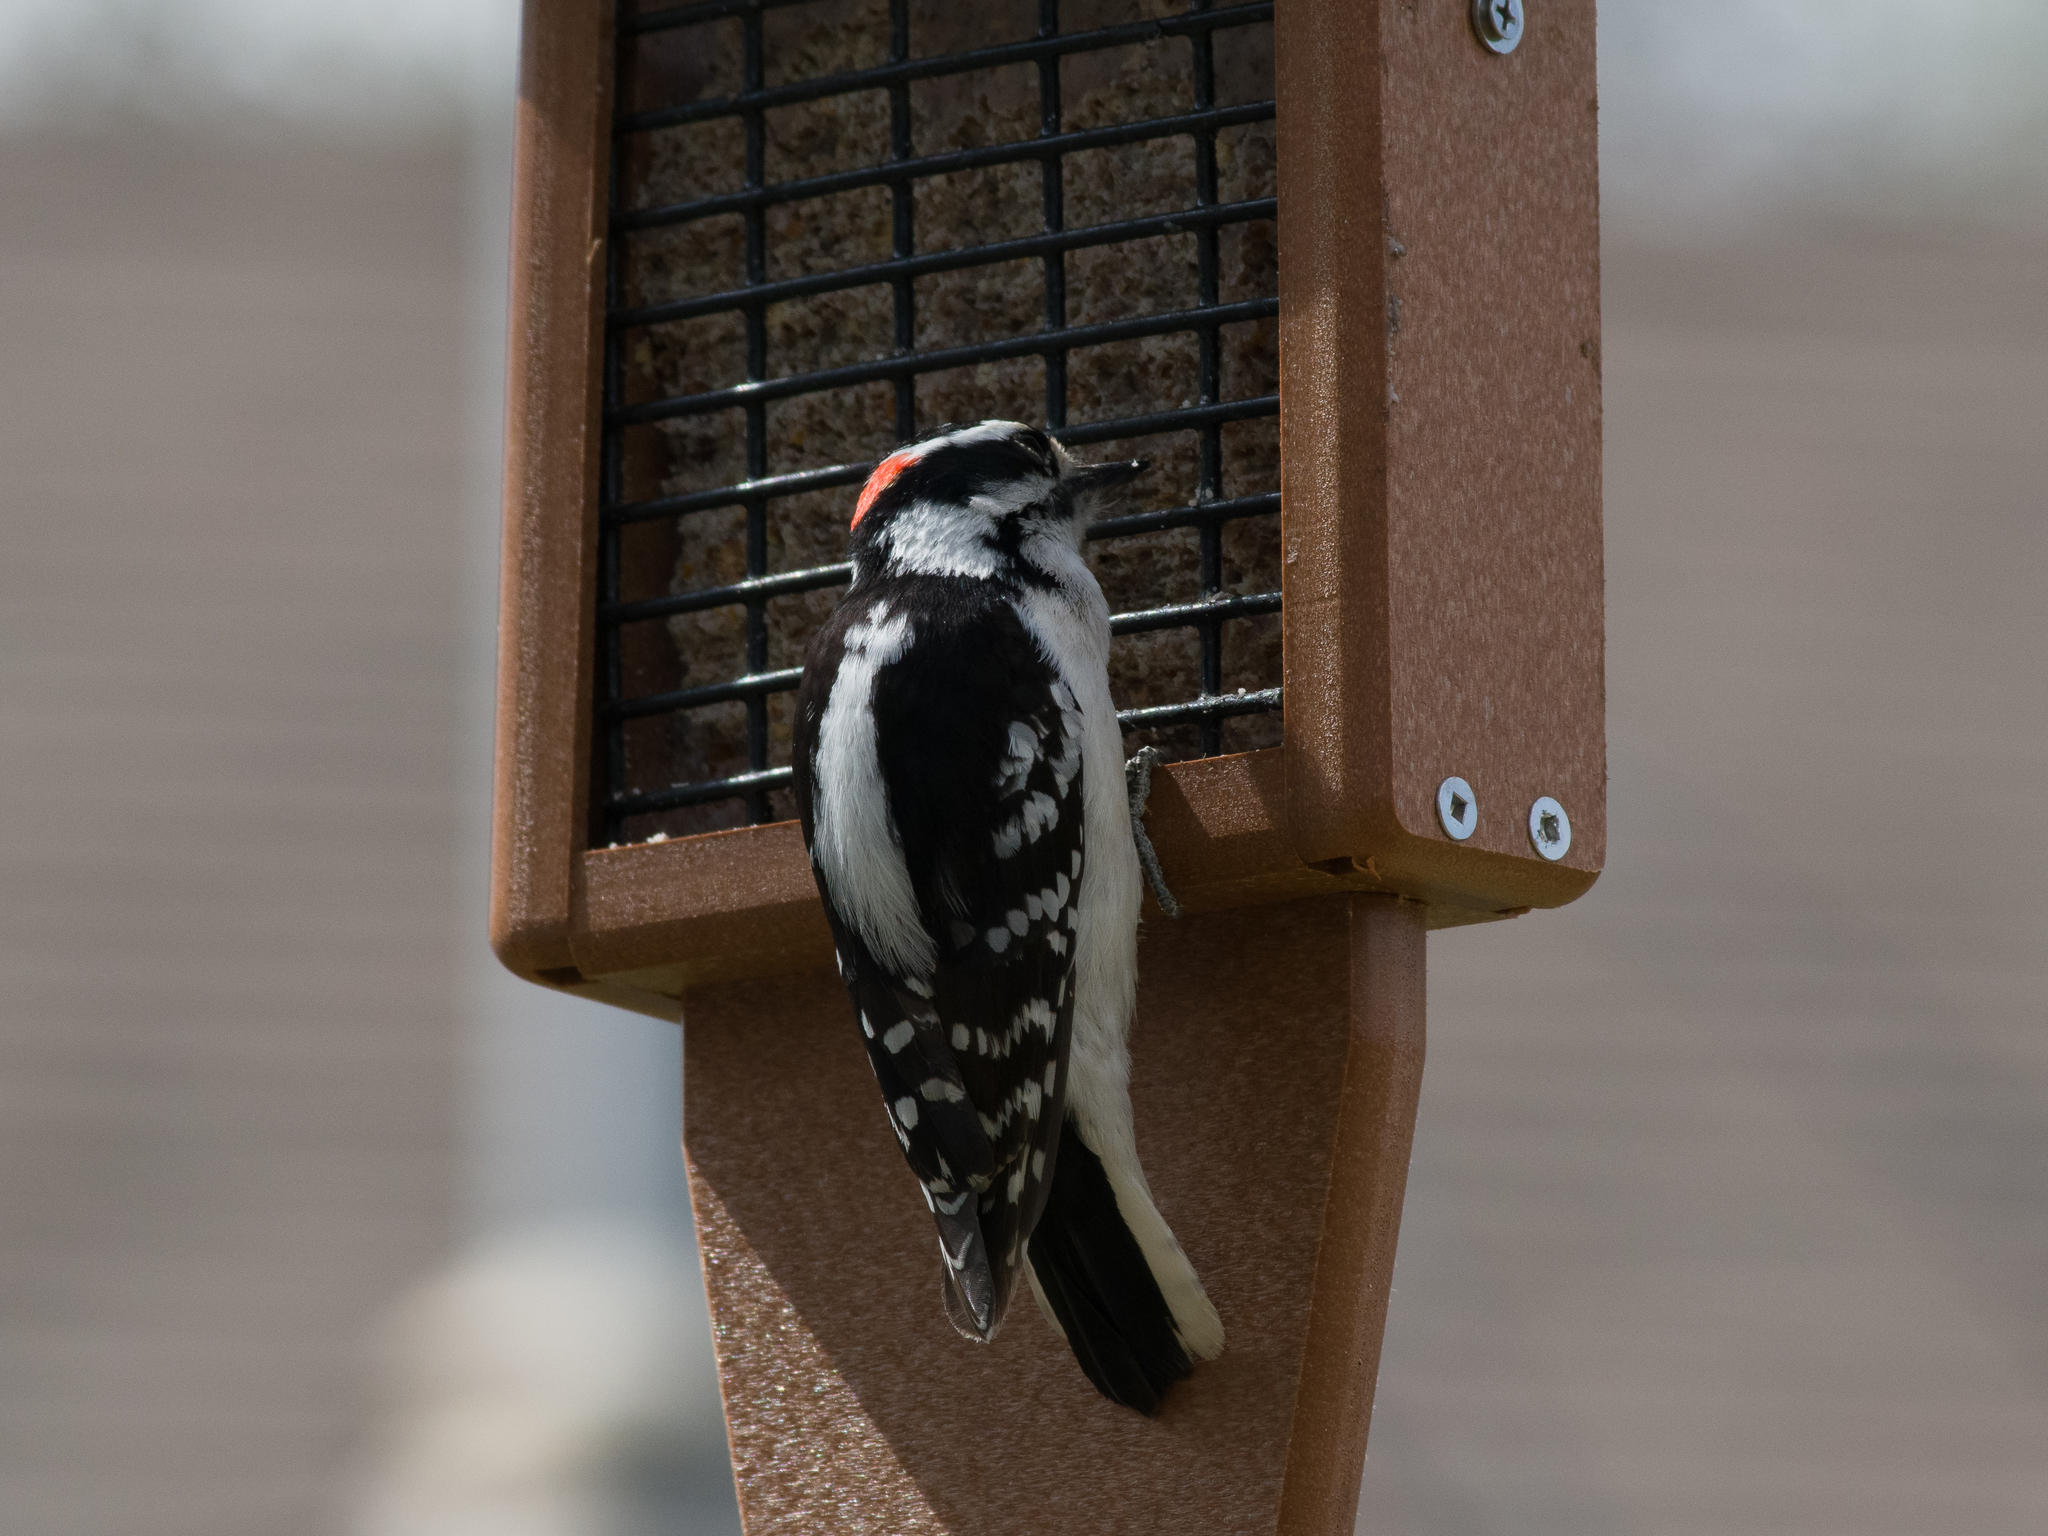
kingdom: Animalia
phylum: Chordata
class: Aves
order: Piciformes
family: Picidae
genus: Dryobates
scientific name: Dryobates pubescens
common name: Downy woodpecker
